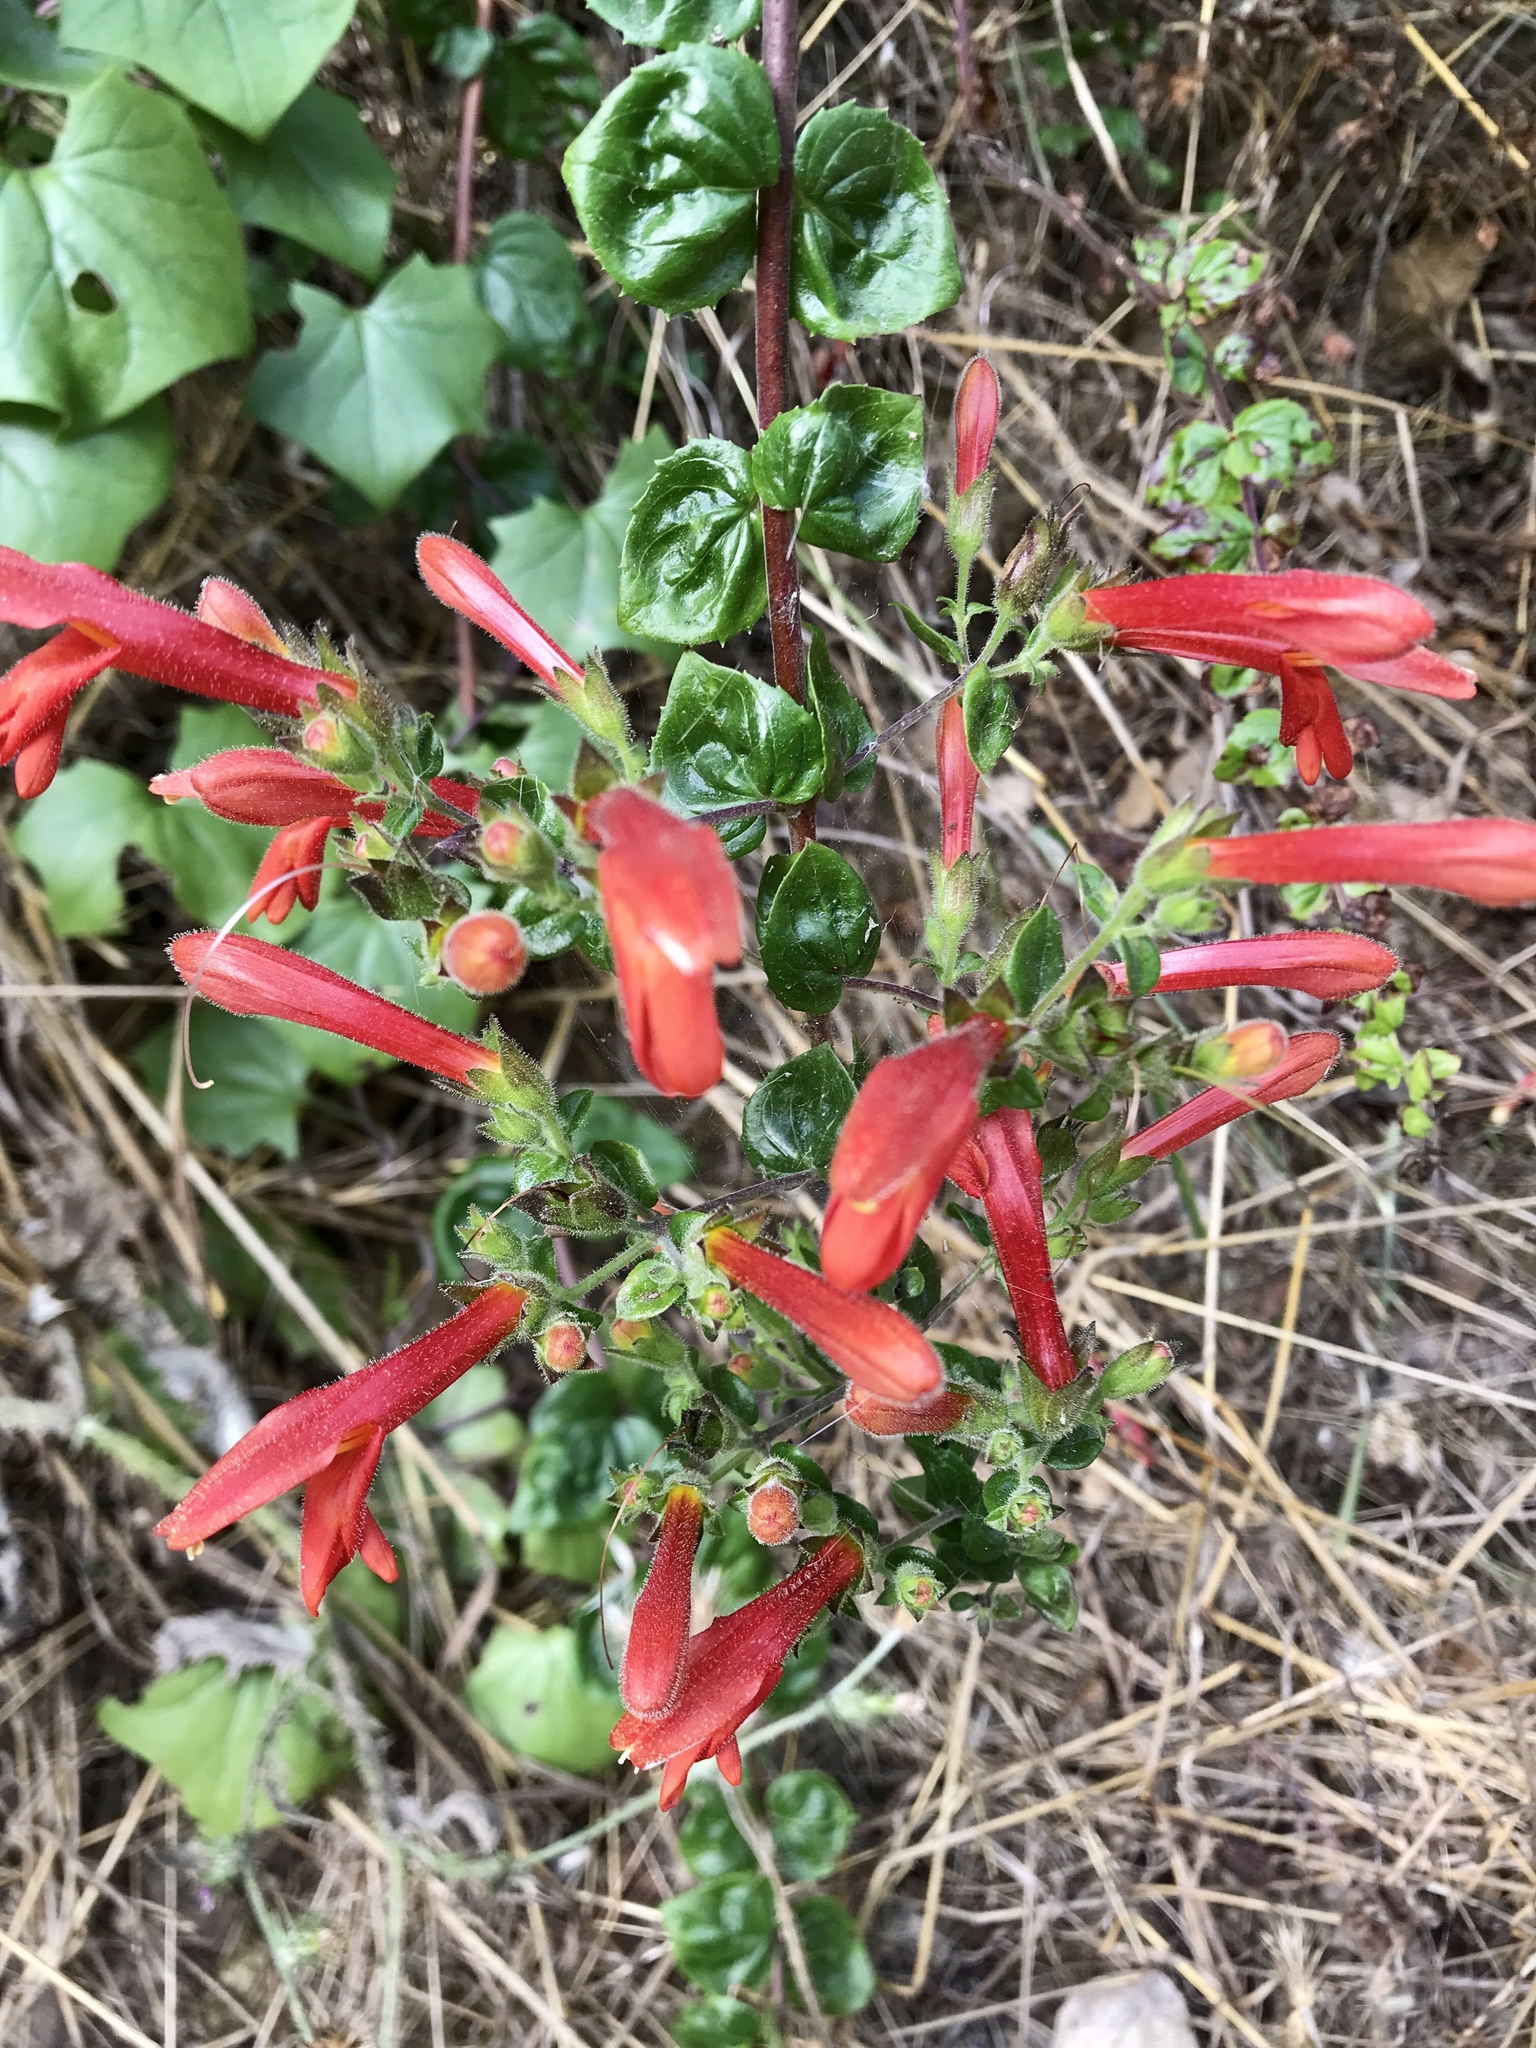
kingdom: Plantae
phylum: Tracheophyta
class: Magnoliopsida
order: Lamiales
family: Plantaginaceae
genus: Keckiella
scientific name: Keckiella cordifolia
